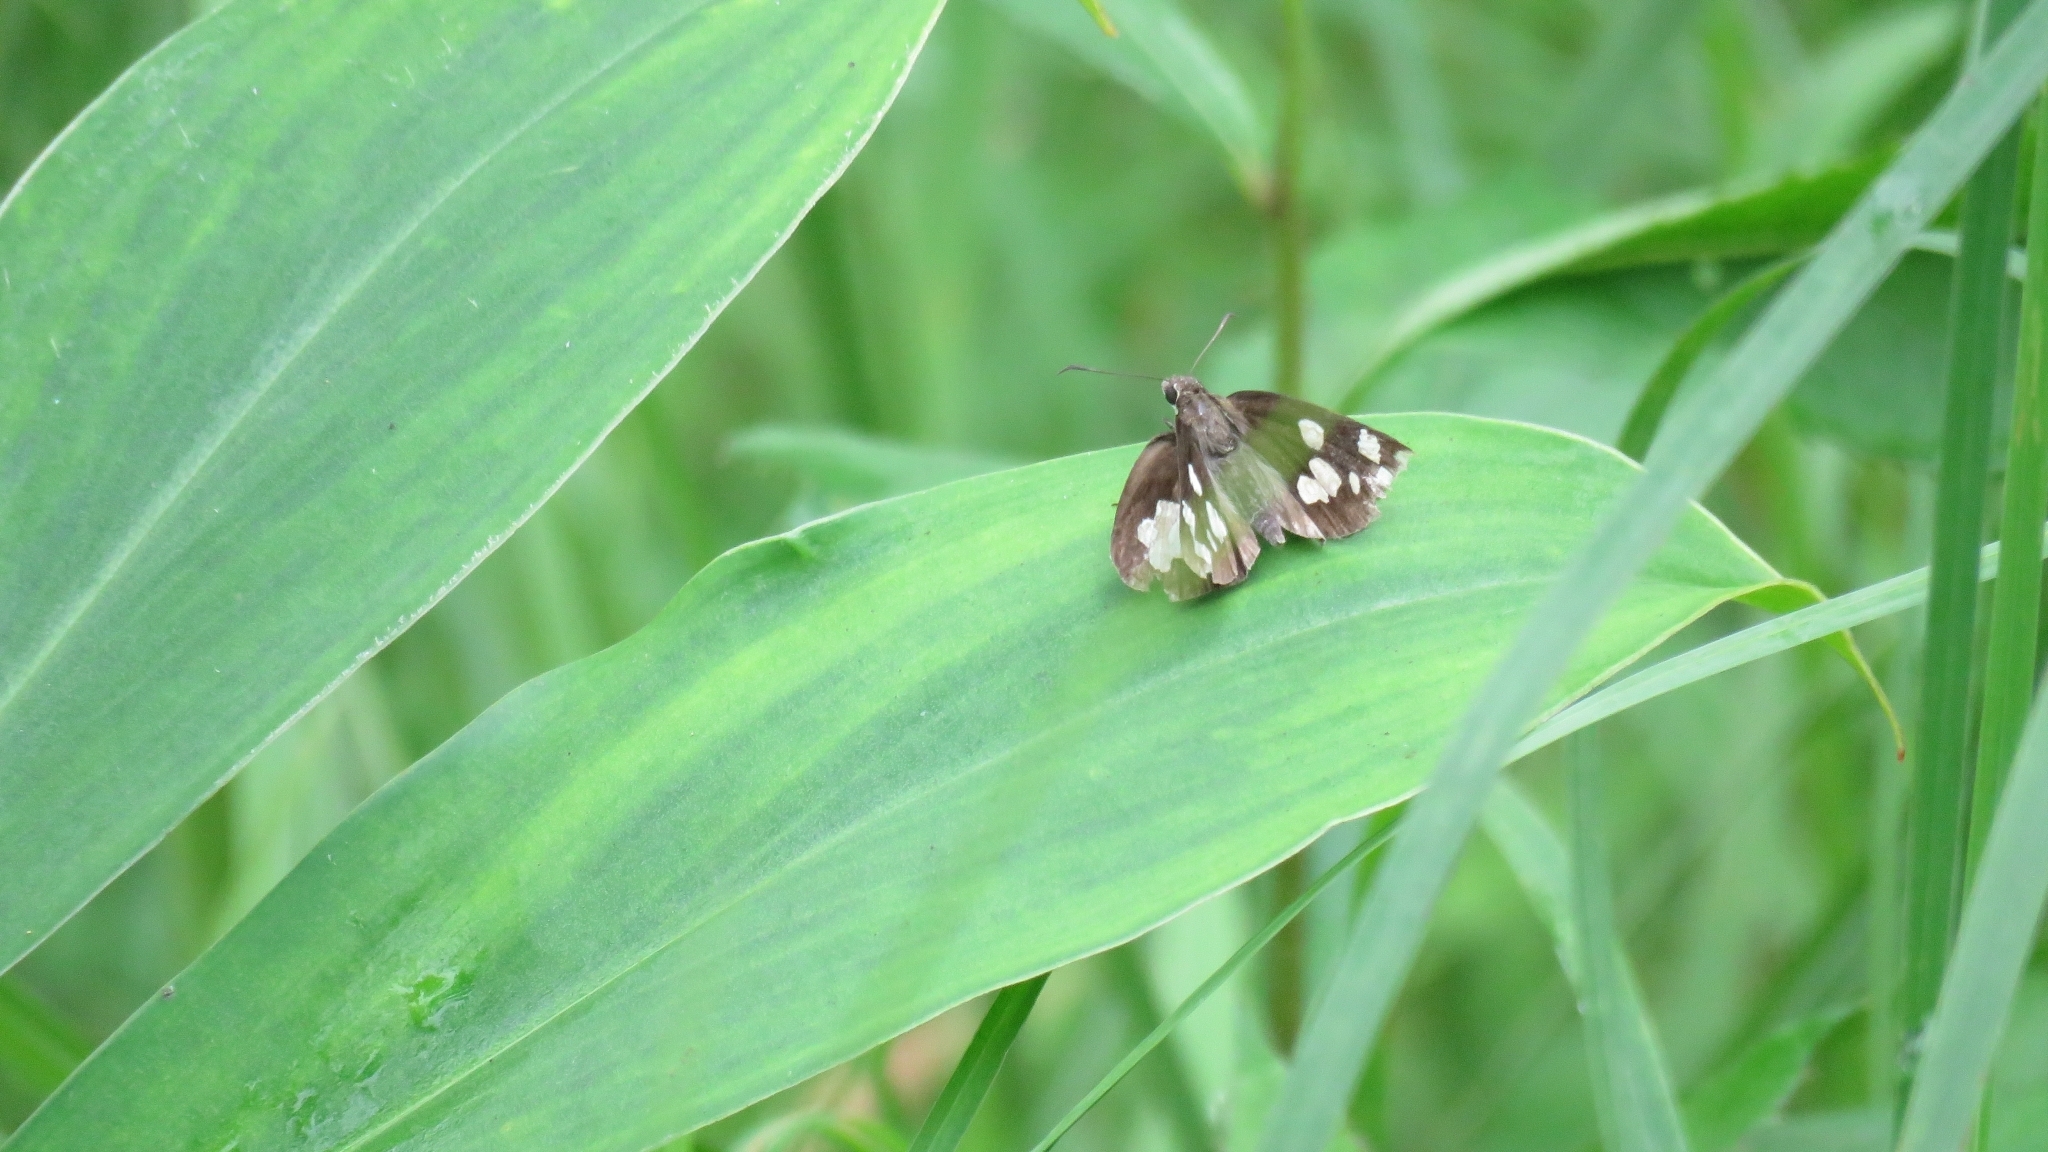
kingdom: Animalia
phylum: Arthropoda
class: Insecta
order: Lepidoptera
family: Hesperiidae
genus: Udaspes
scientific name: Udaspes folus
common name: Grass demon
